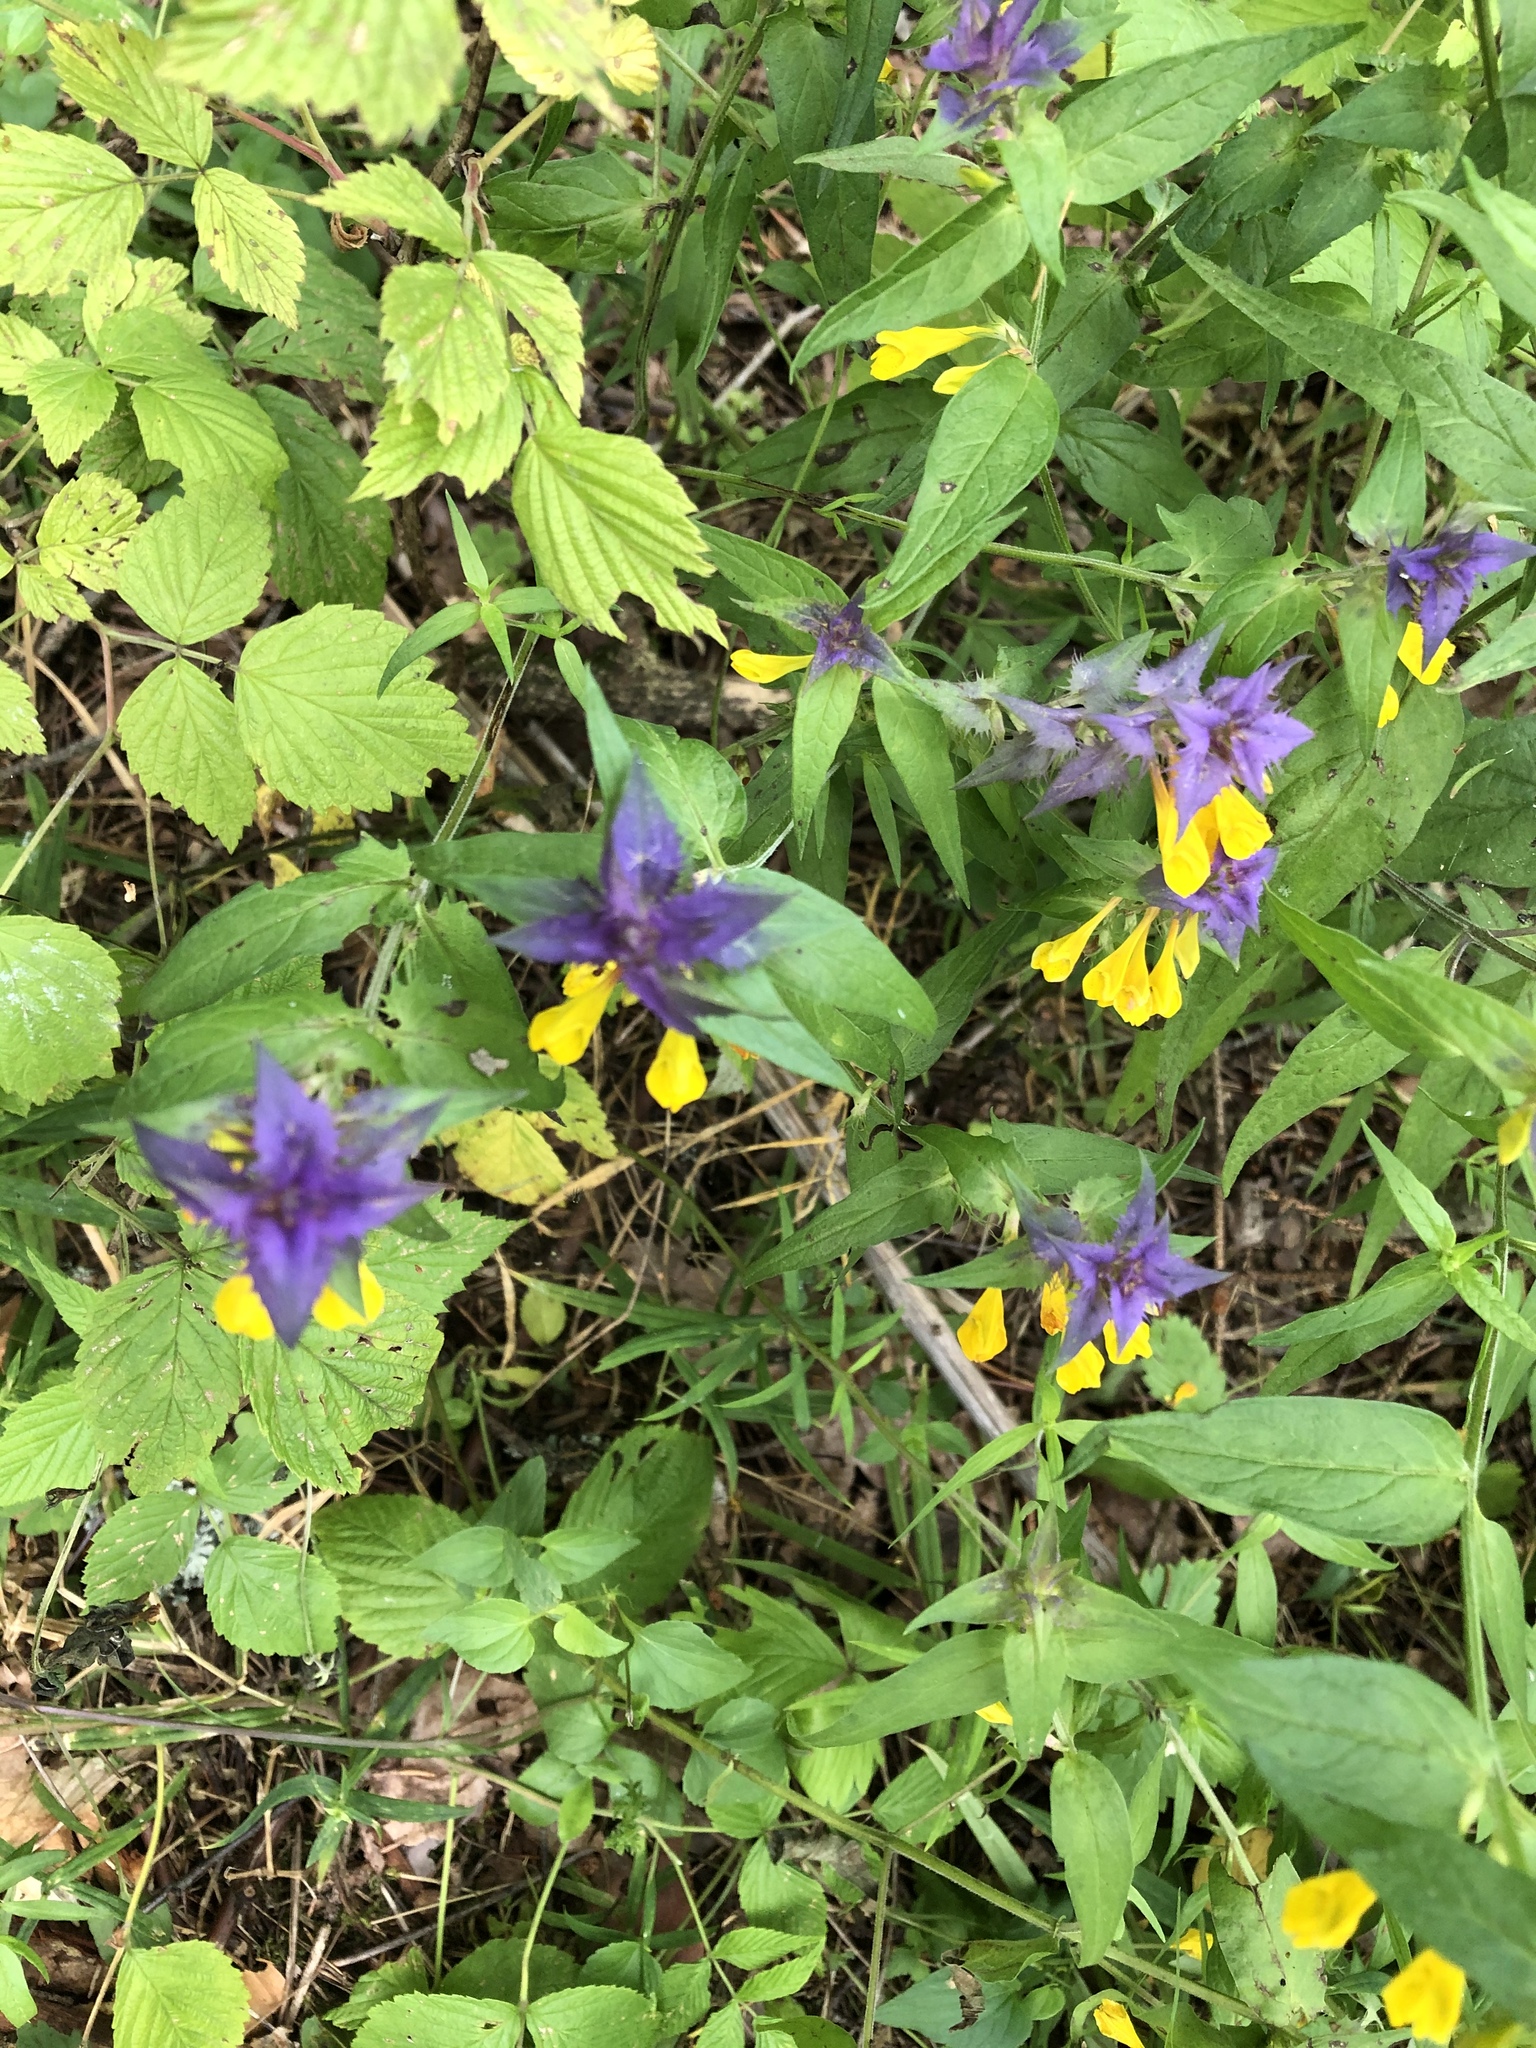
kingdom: Plantae
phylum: Tracheophyta
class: Magnoliopsida
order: Lamiales
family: Orobanchaceae
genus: Melampyrum
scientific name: Melampyrum nemorosum
